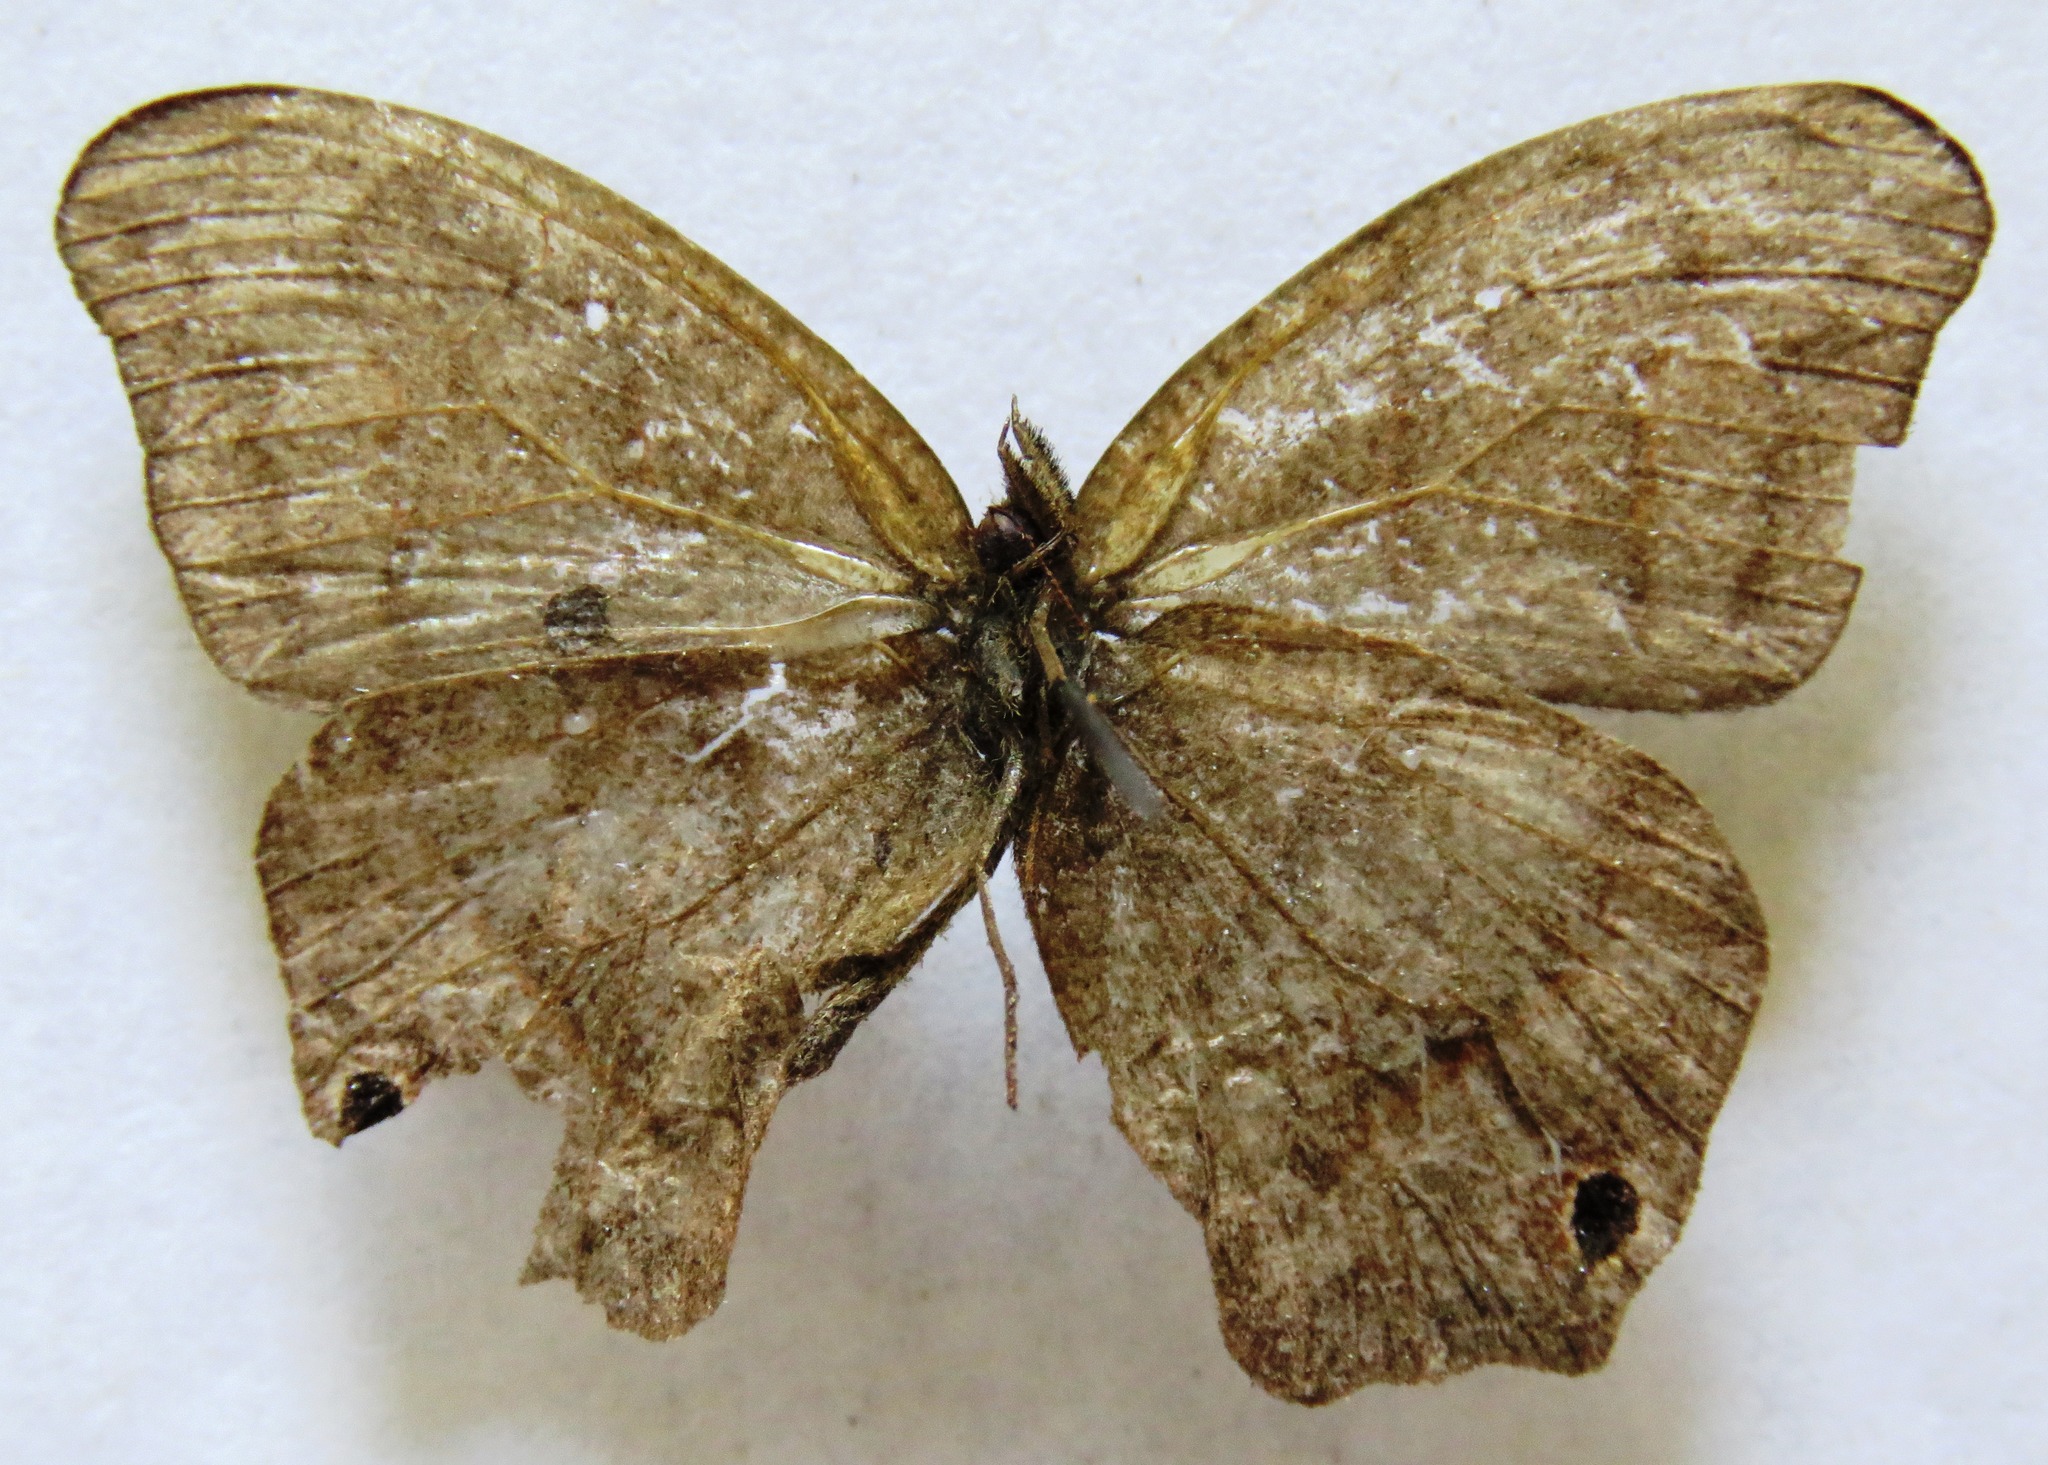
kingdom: Animalia
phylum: Arthropoda
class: Insecta
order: Lepidoptera
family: Nymphalidae
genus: Euptychia
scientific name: Euptychia Cyllopsis hedemanni
